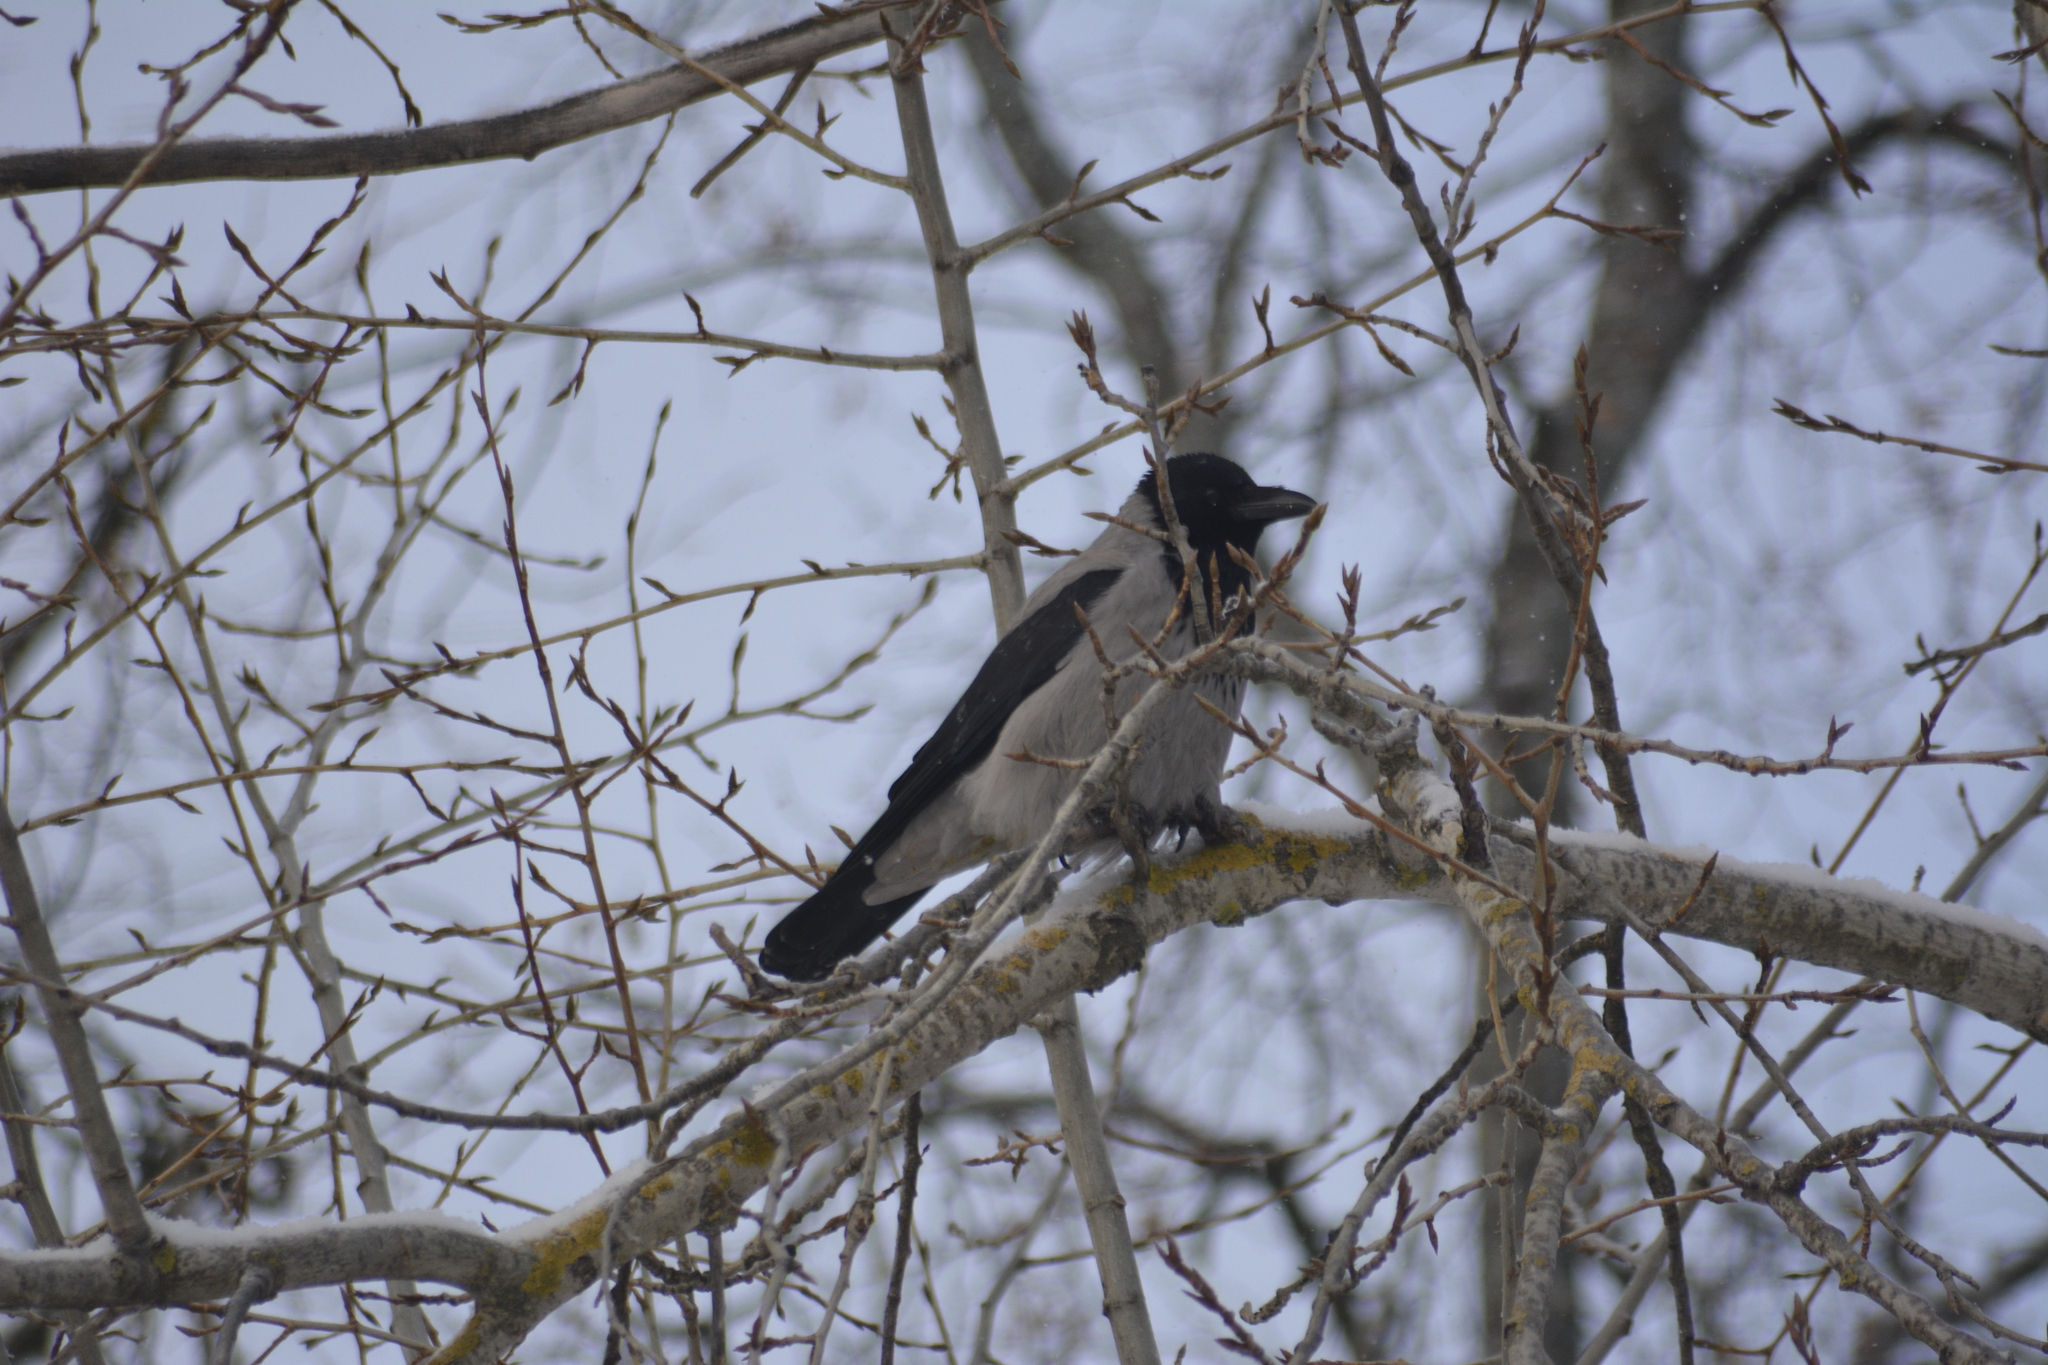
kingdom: Animalia
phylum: Chordata
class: Aves
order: Passeriformes
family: Corvidae
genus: Corvus
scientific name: Corvus cornix
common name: Hooded crow
